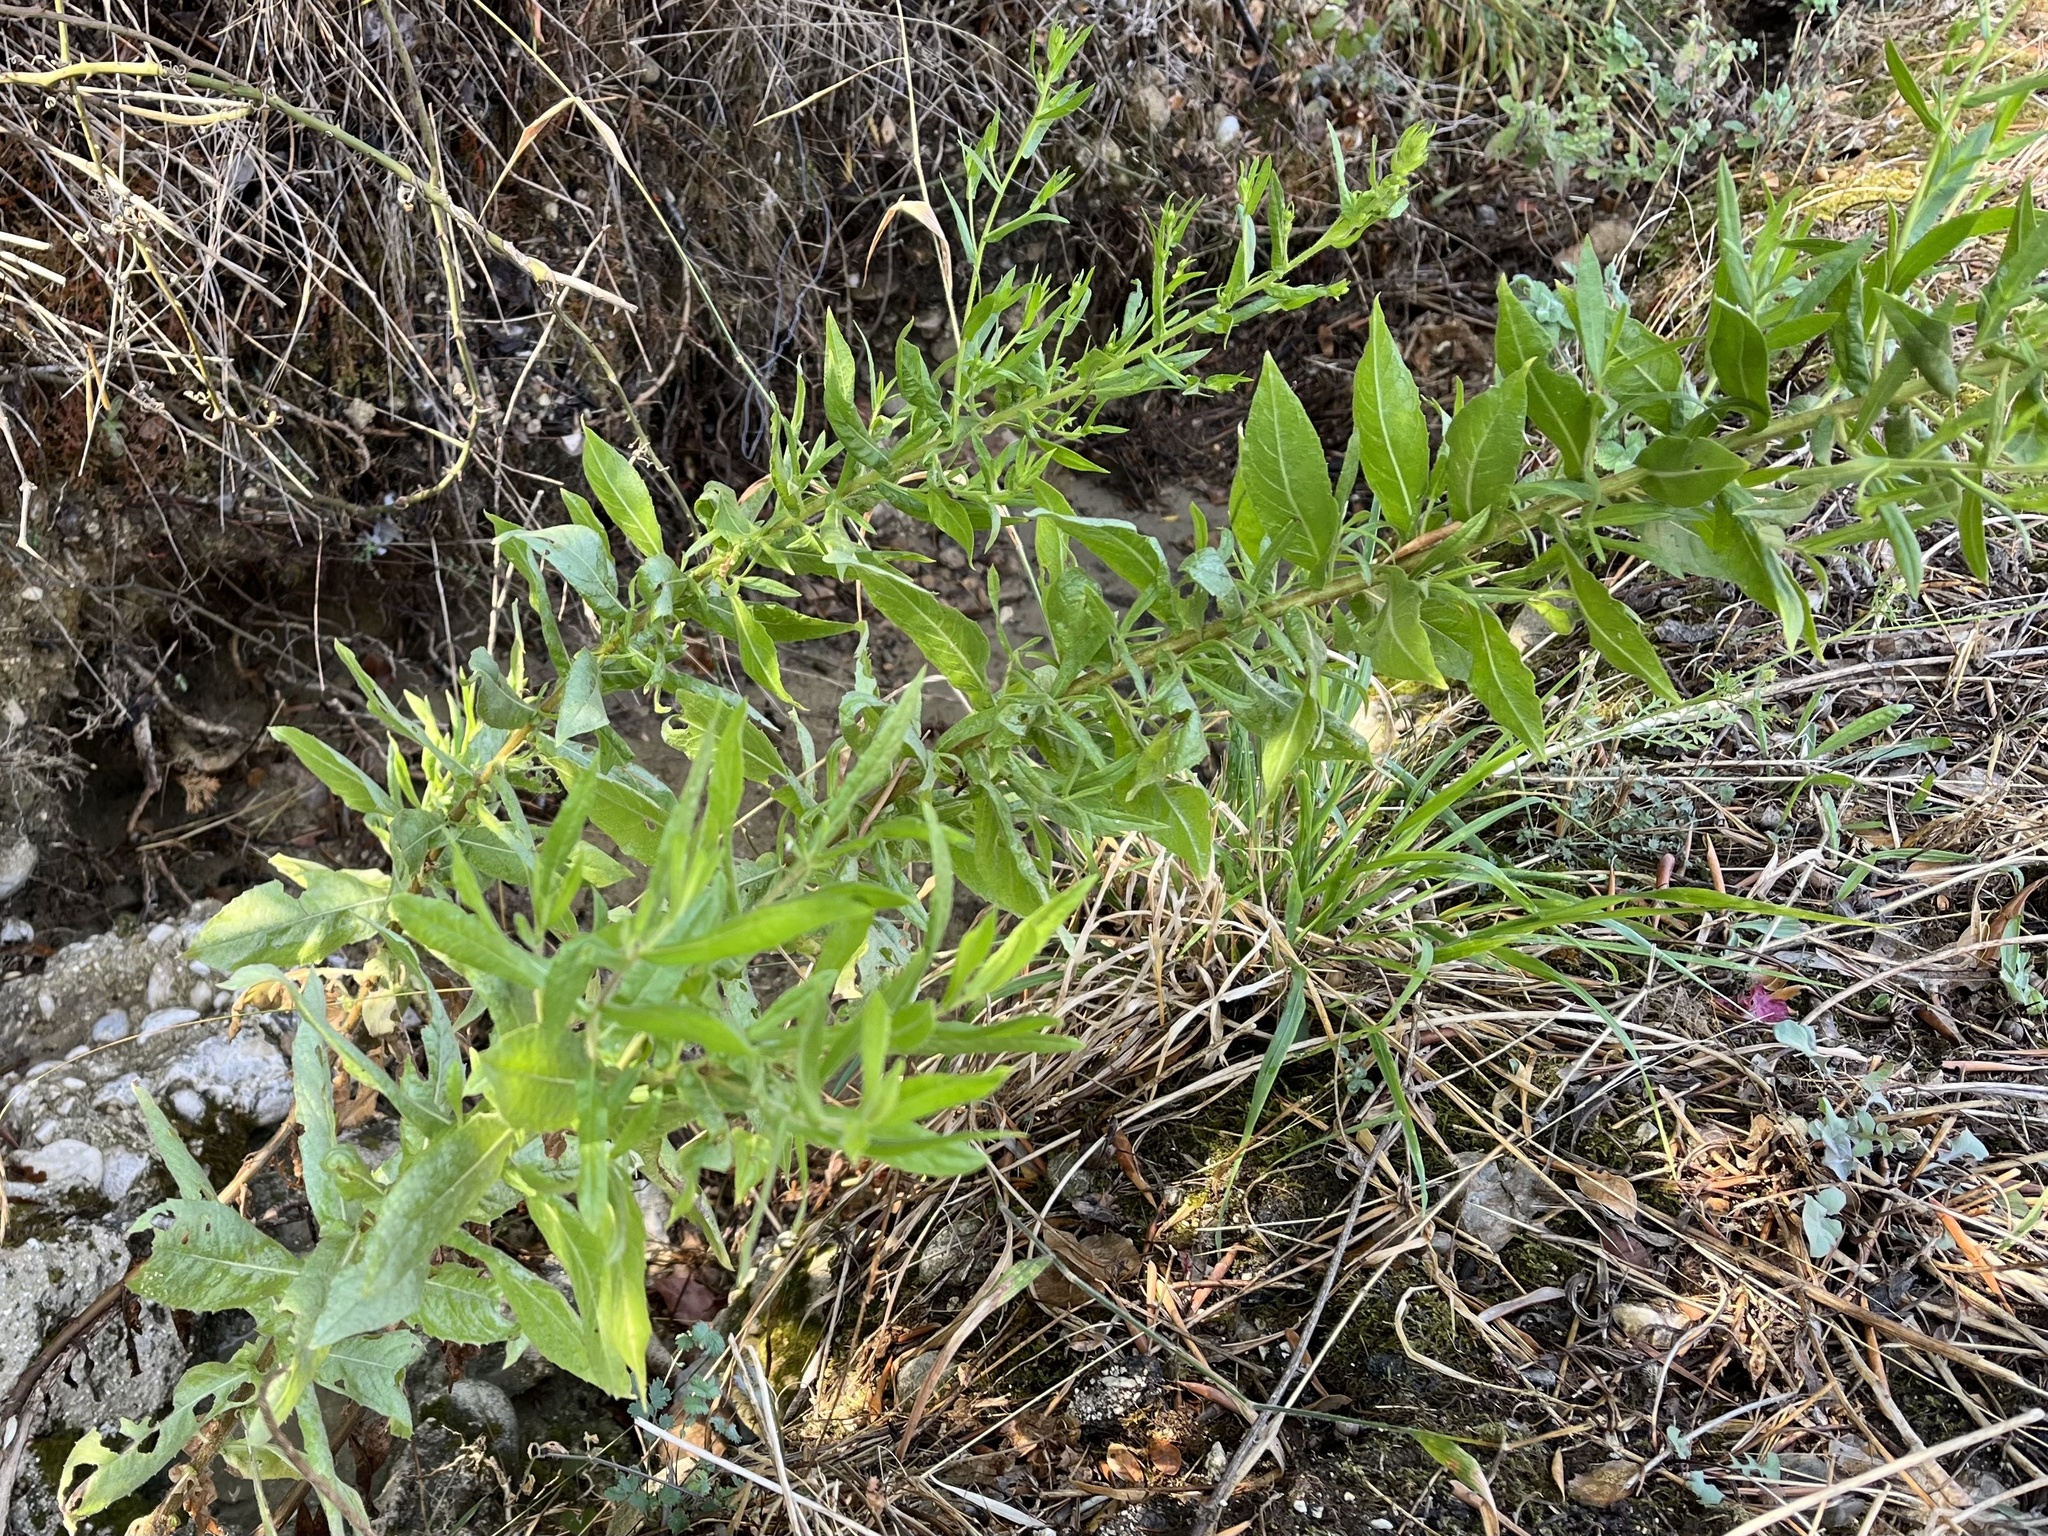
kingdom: Plantae
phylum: Tracheophyta
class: Magnoliopsida
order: Asterales
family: Asteraceae
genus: Dittrichia
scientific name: Dittrichia viscosa
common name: Woody fleabane
